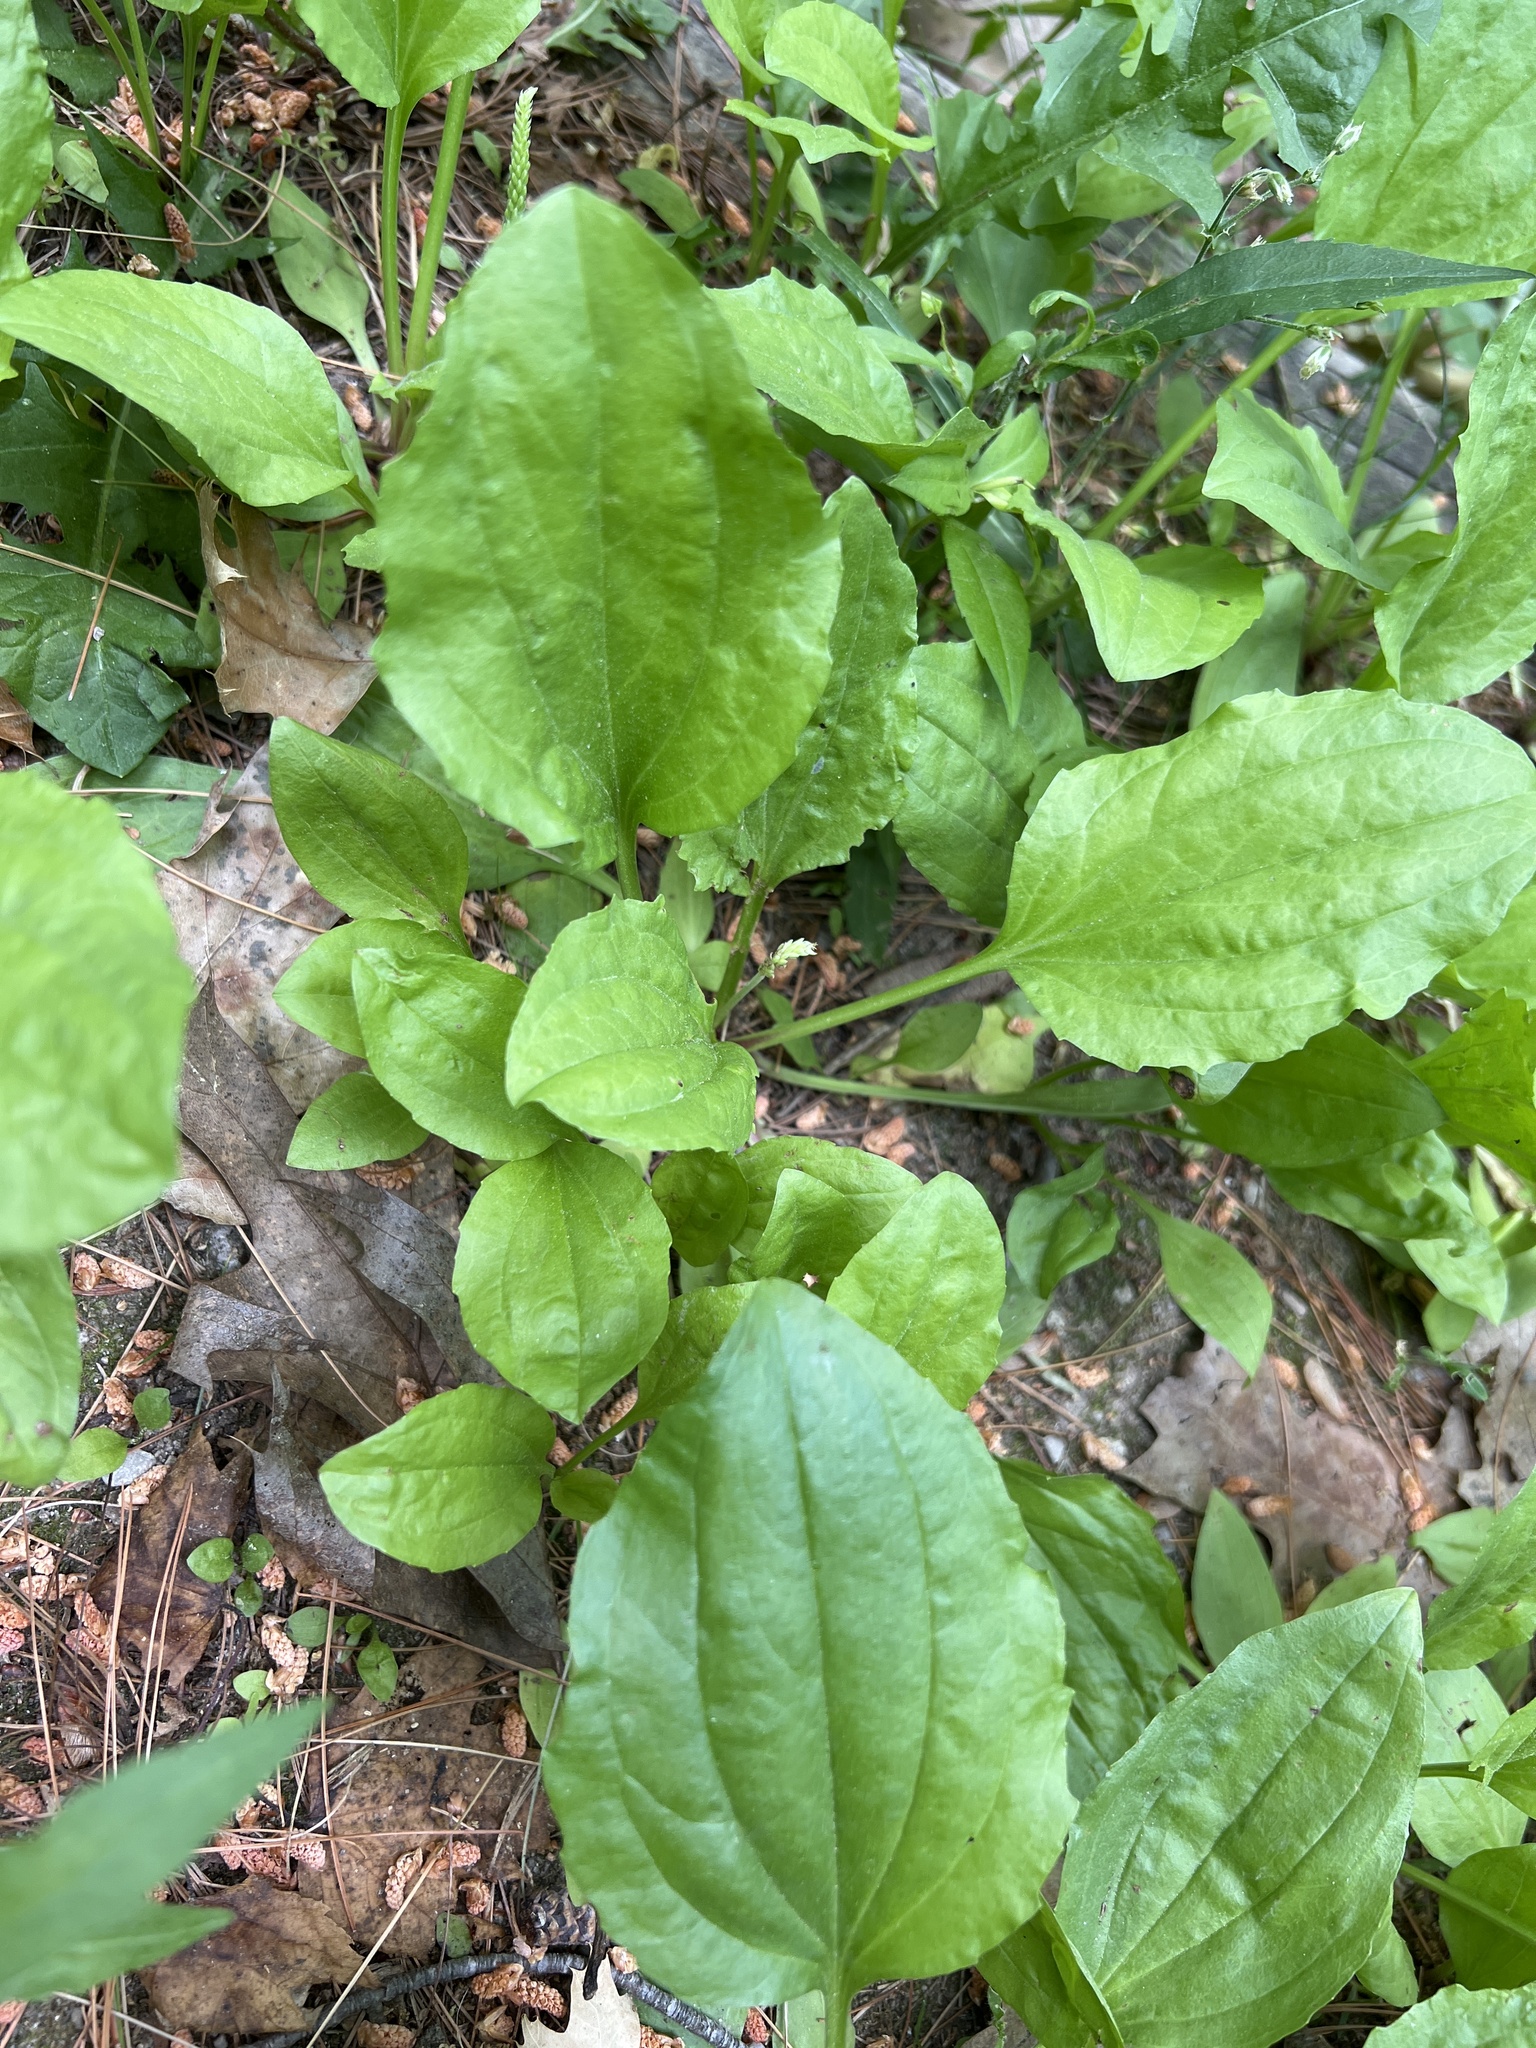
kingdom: Plantae
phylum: Tracheophyta
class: Magnoliopsida
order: Lamiales
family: Plantaginaceae
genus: Plantago
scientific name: Plantago rugelii
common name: American plantain
